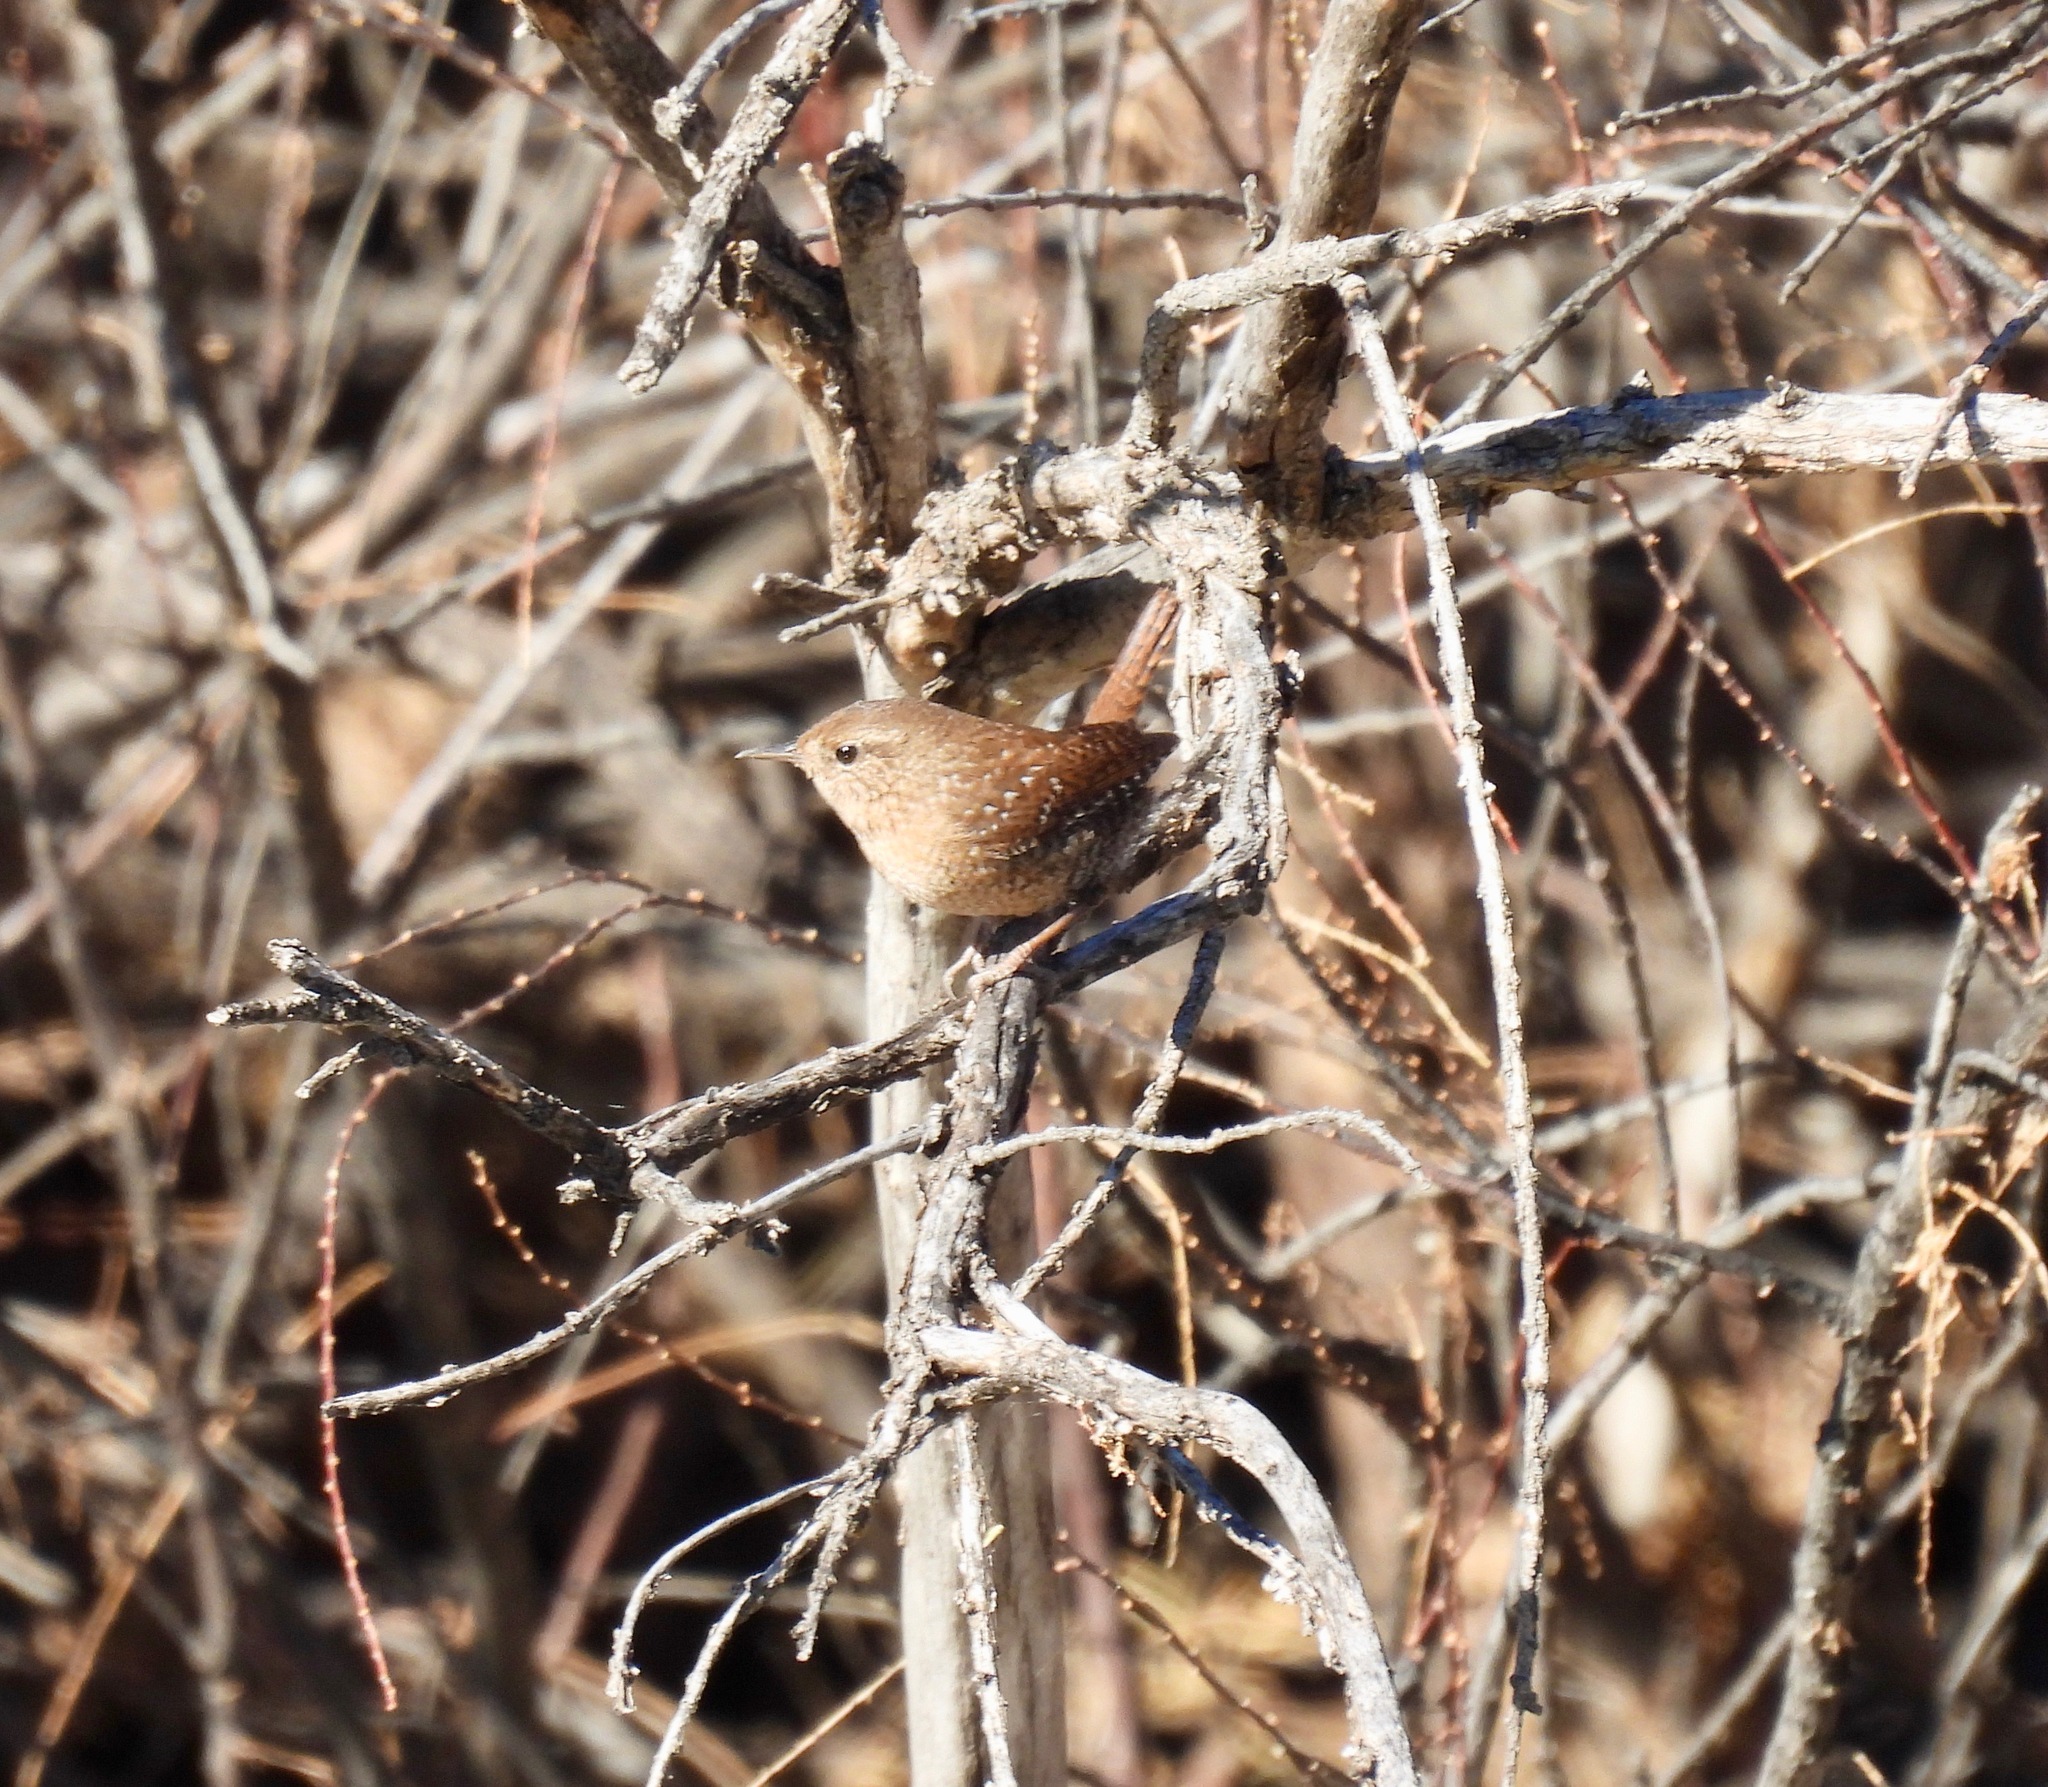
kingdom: Animalia
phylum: Chordata
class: Aves
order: Passeriformes
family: Troglodytidae
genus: Troglodytes
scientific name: Troglodytes hiemalis
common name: Winter wren
